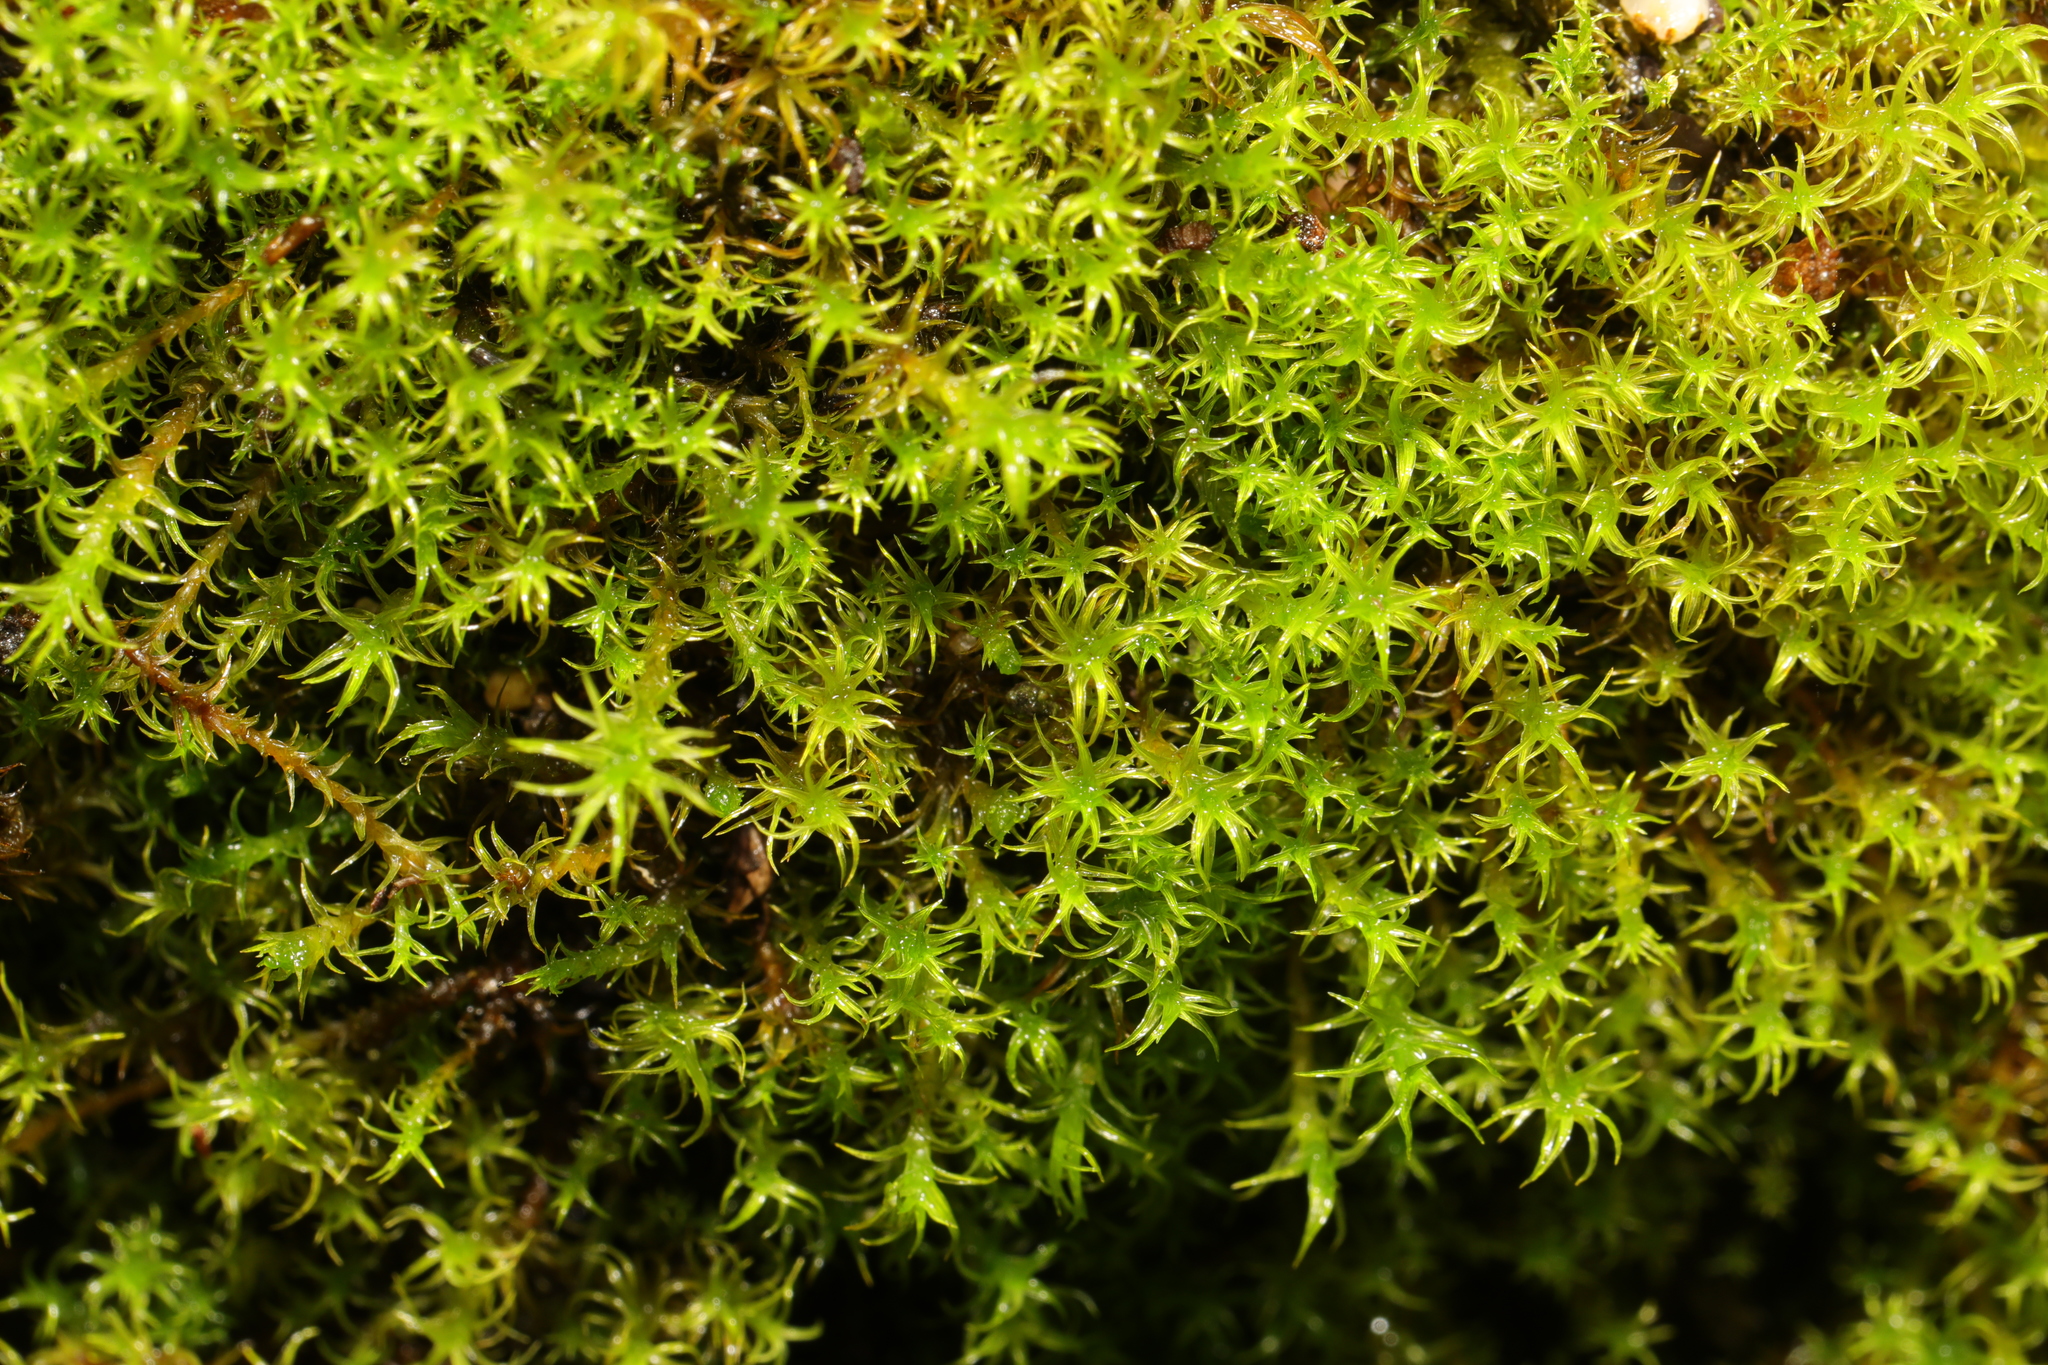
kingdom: Plantae
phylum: Bryophyta
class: Bryopsida
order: Pottiales
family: Pottiaceae
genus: Vinealobryum
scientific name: Vinealobryum insulanum
